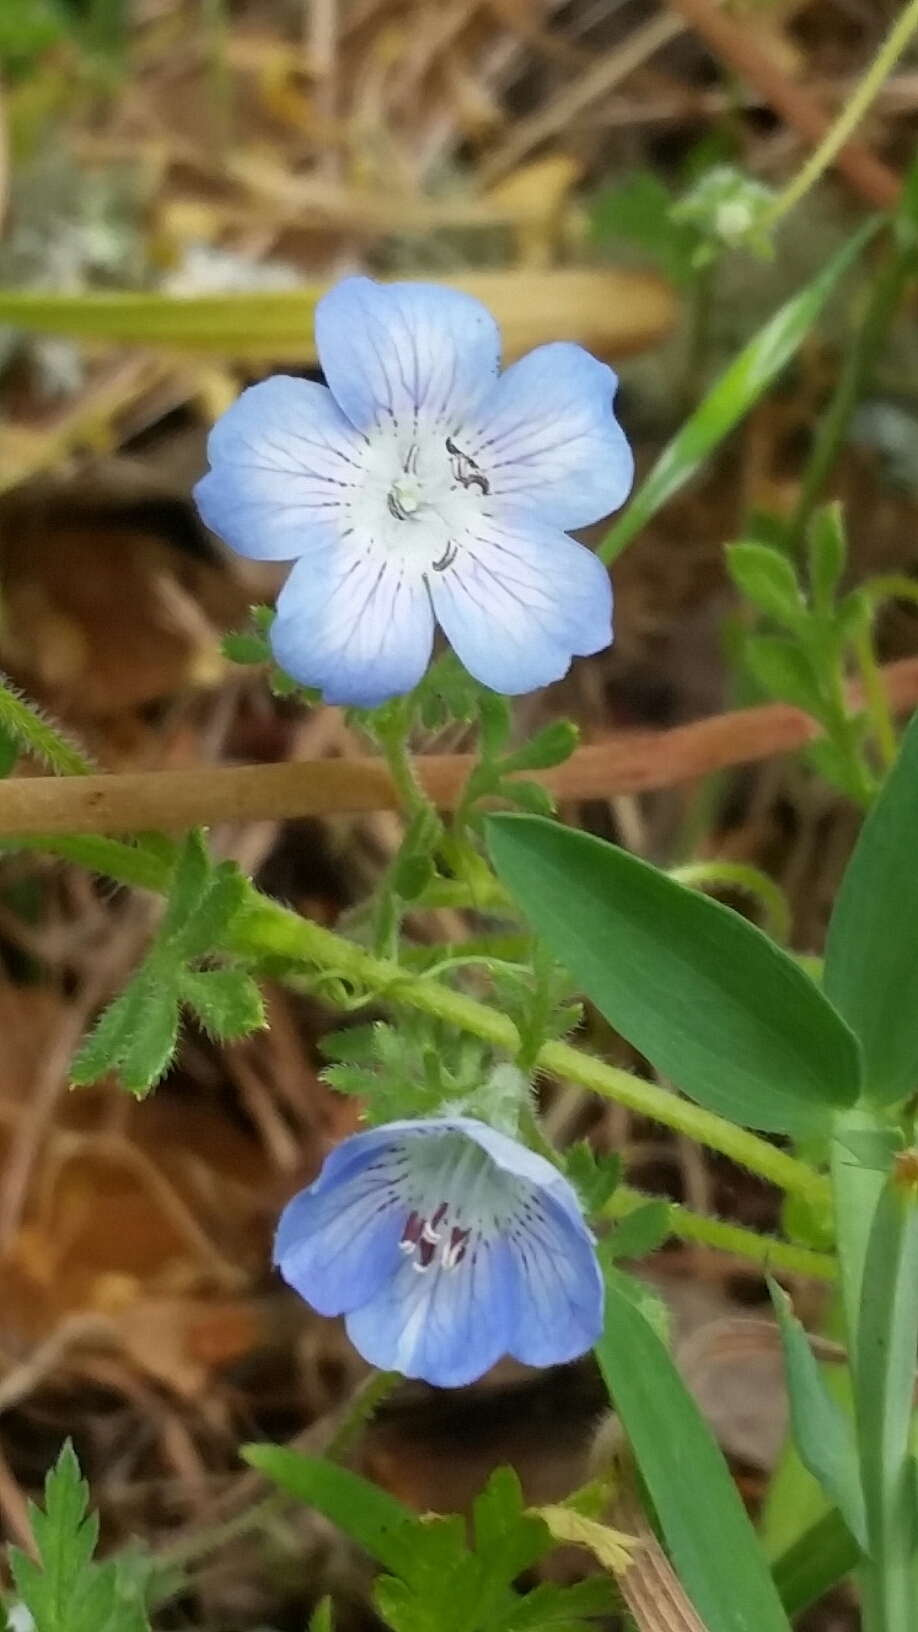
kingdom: Plantae
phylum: Tracheophyta
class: Magnoliopsida
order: Boraginales
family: Hydrophyllaceae
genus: Nemophila
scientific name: Nemophila menziesii
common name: Baby's-blue-eyes
